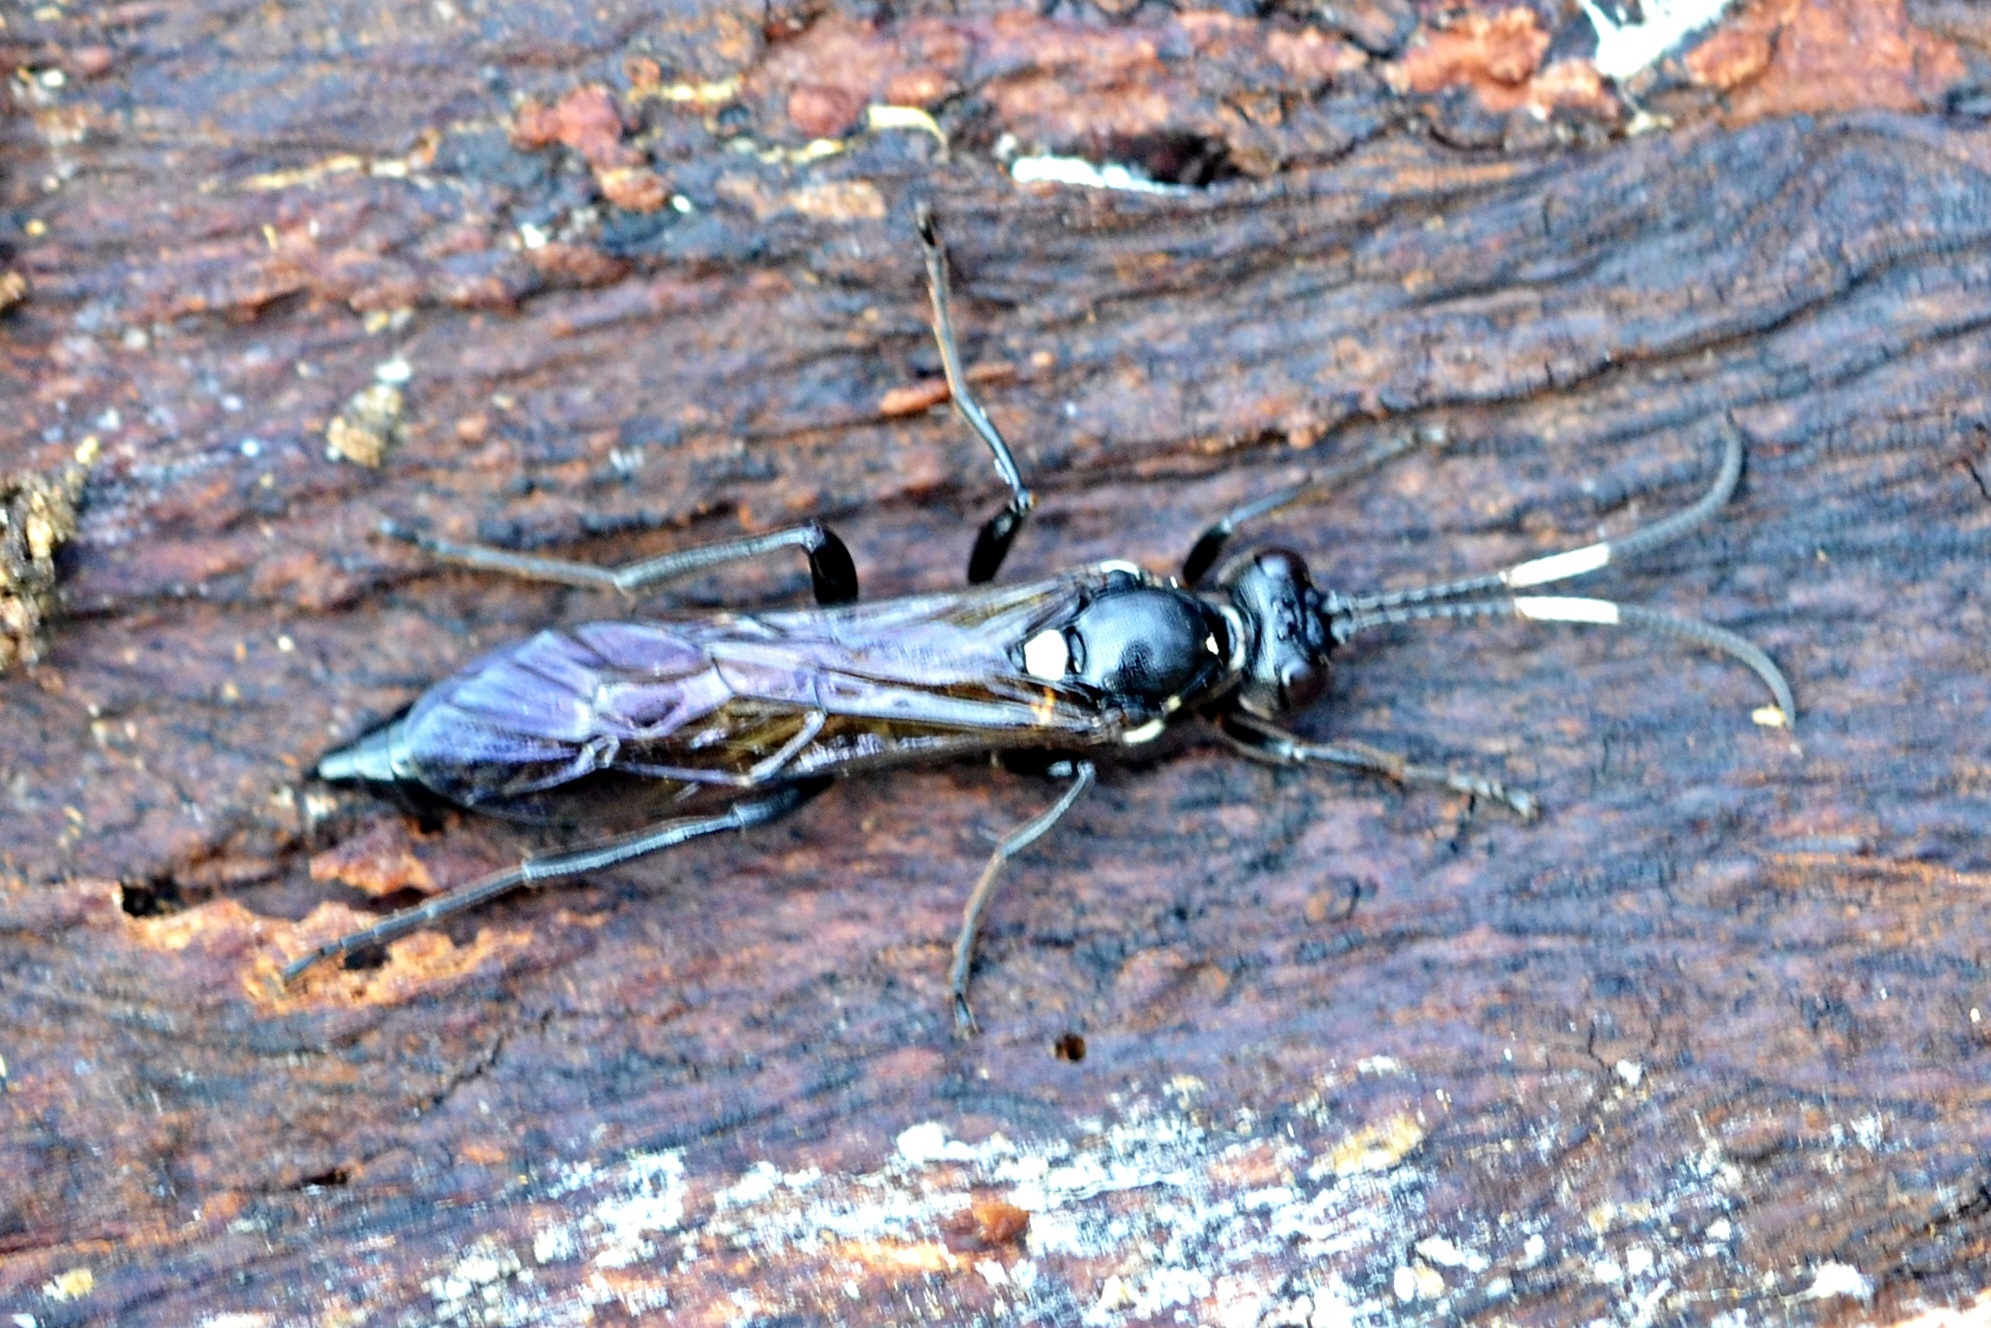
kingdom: Animalia
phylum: Arthropoda
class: Insecta
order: Hymenoptera
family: Ichneumonidae
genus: Ichneumon
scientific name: Ichneumon lugens
